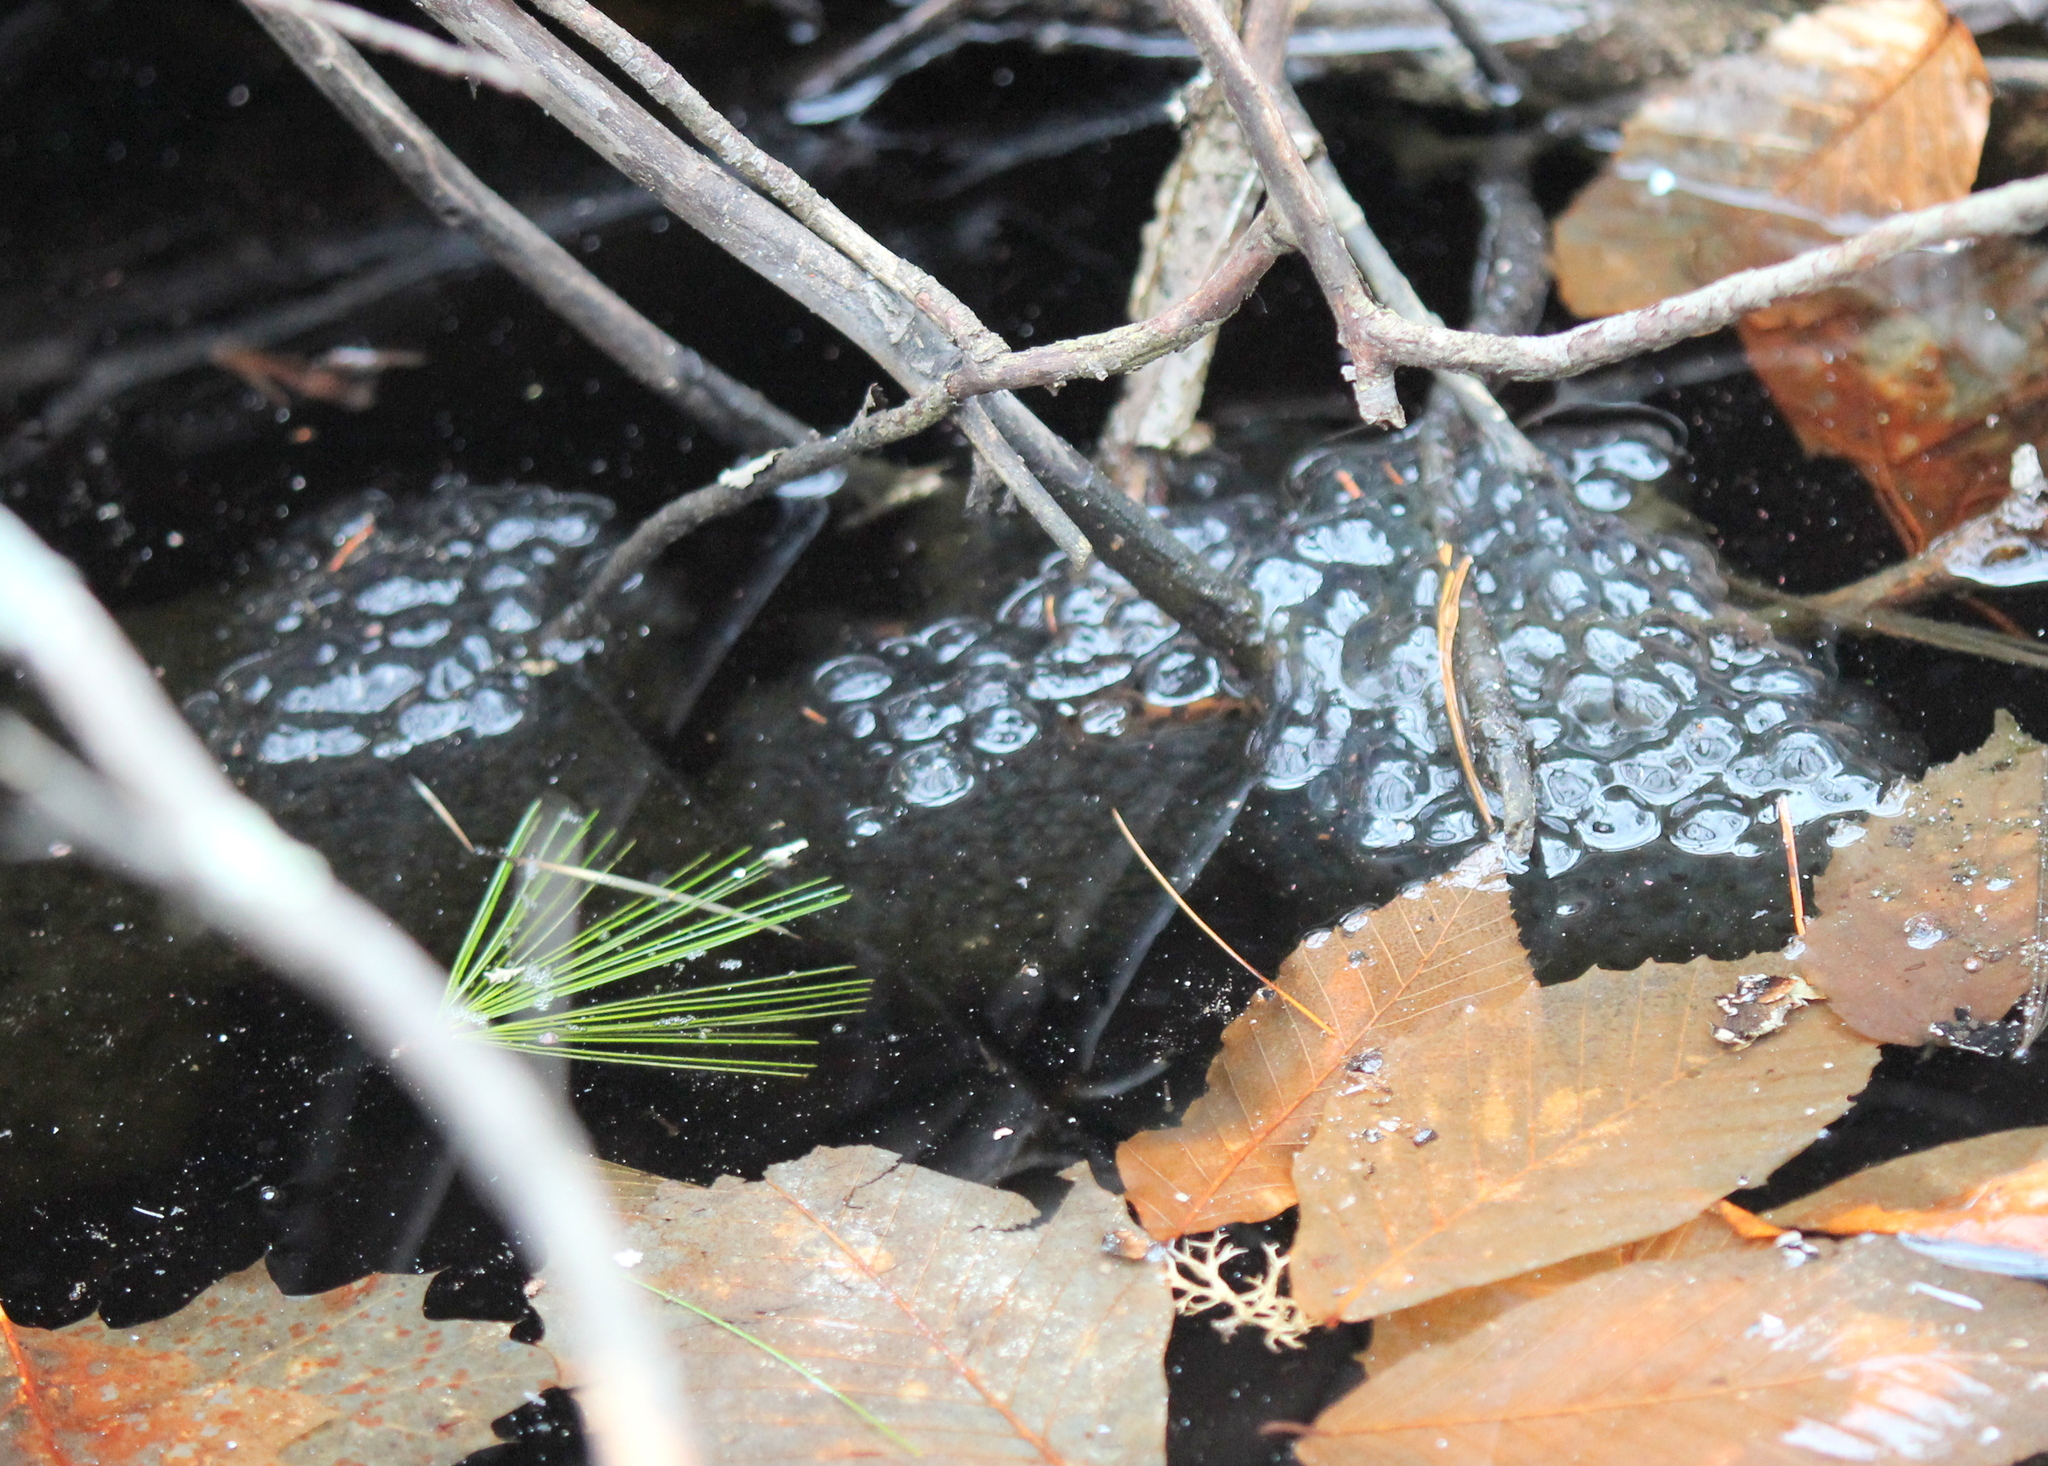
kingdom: Animalia
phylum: Chordata
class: Amphibia
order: Anura
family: Ranidae
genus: Lithobates
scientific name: Lithobates sylvaticus
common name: Wood frog
